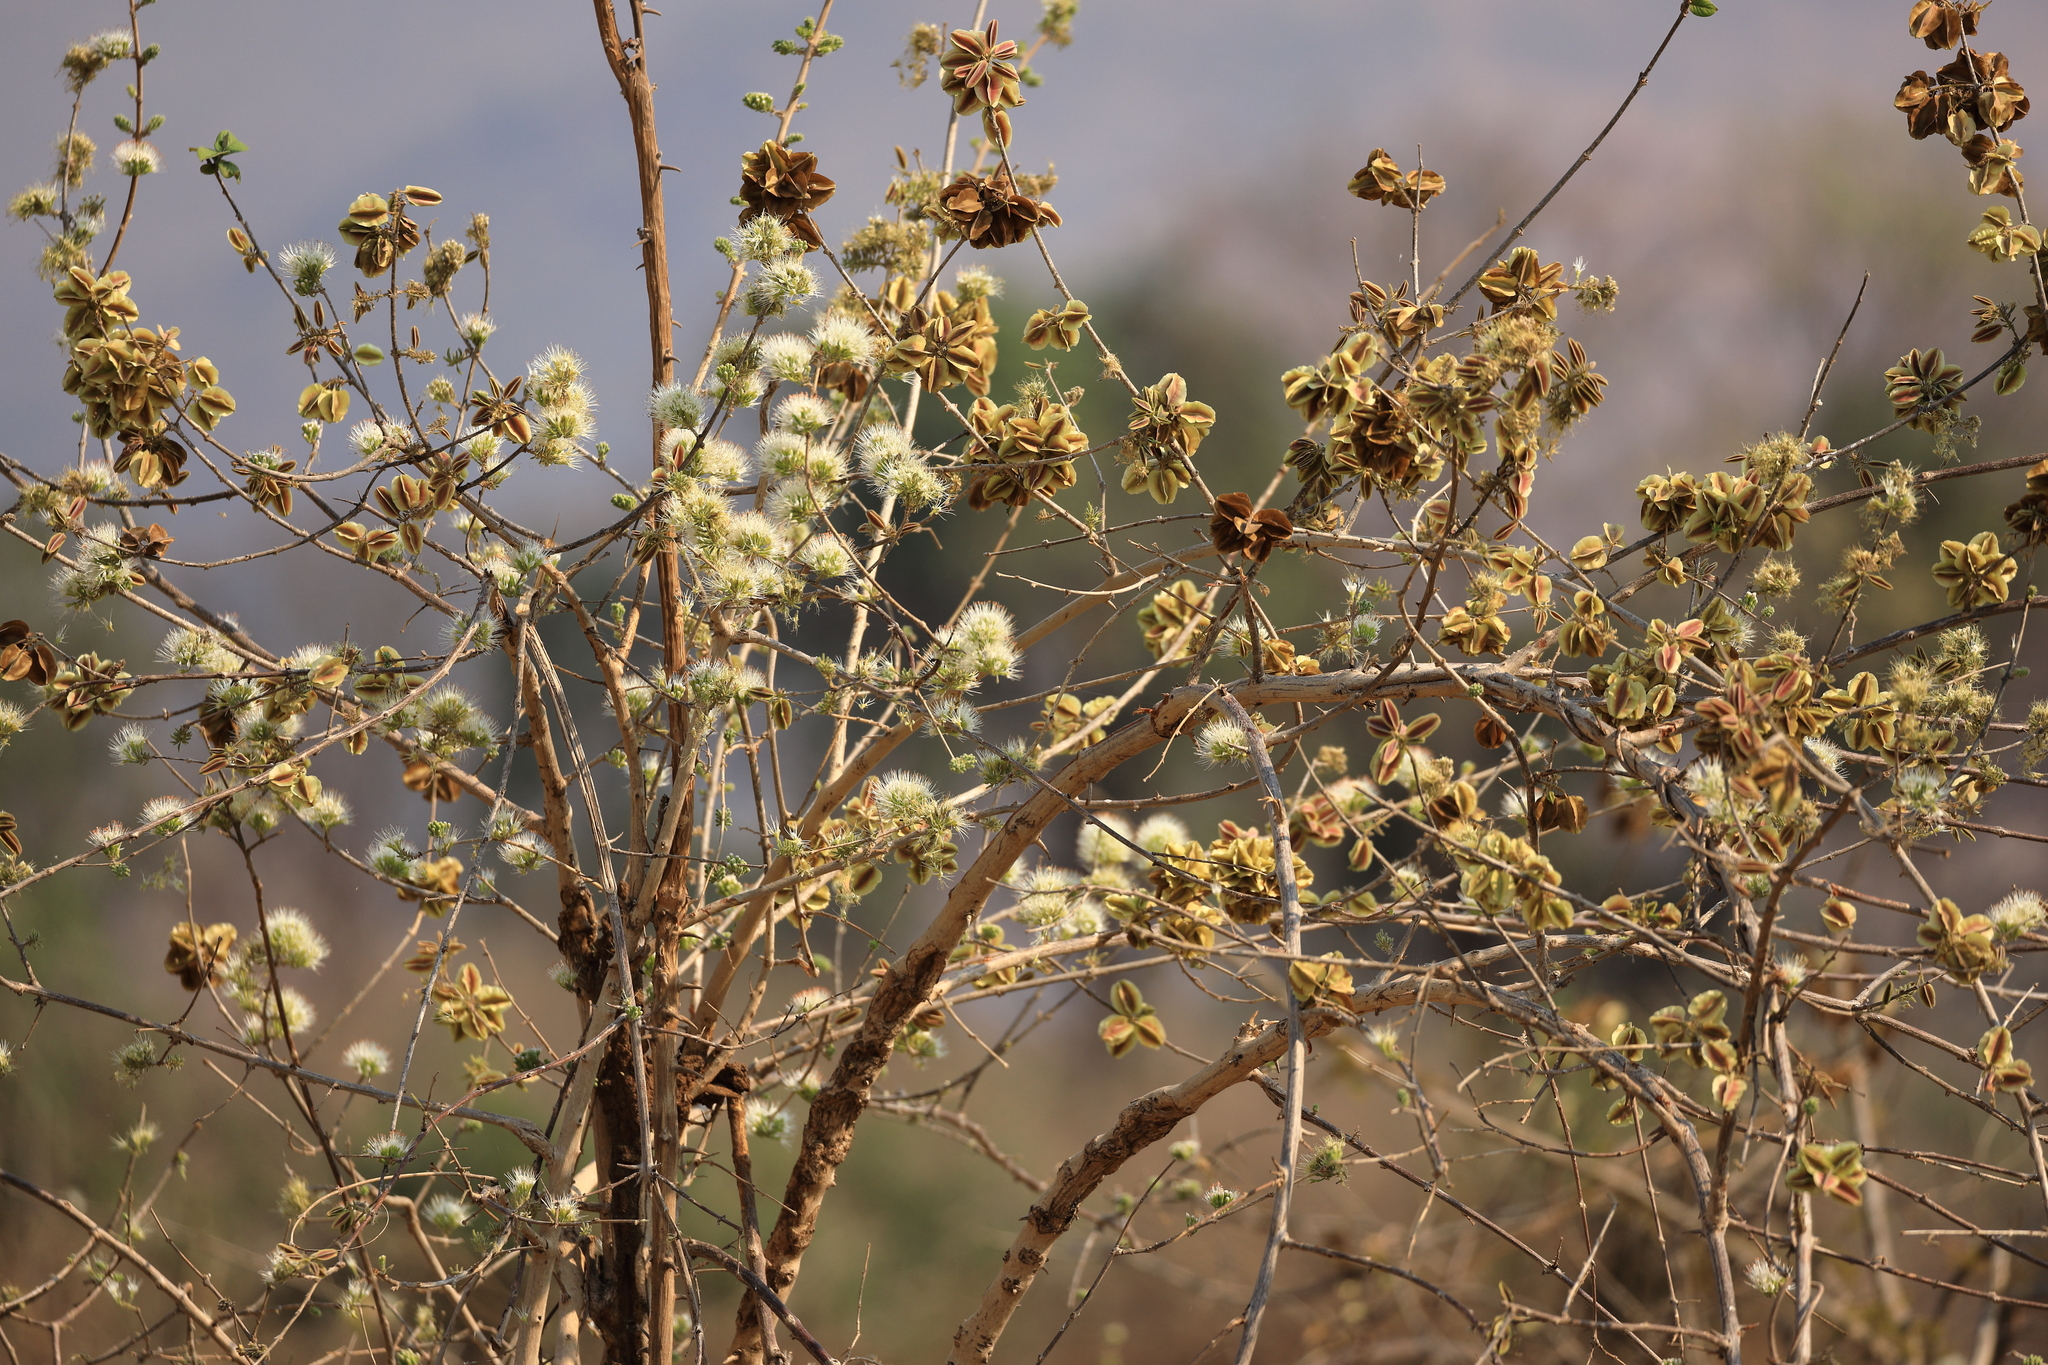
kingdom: Plantae
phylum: Tracheophyta
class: Magnoliopsida
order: Myrtales
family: Combretaceae
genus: Combretum
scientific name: Combretum mossambicense
